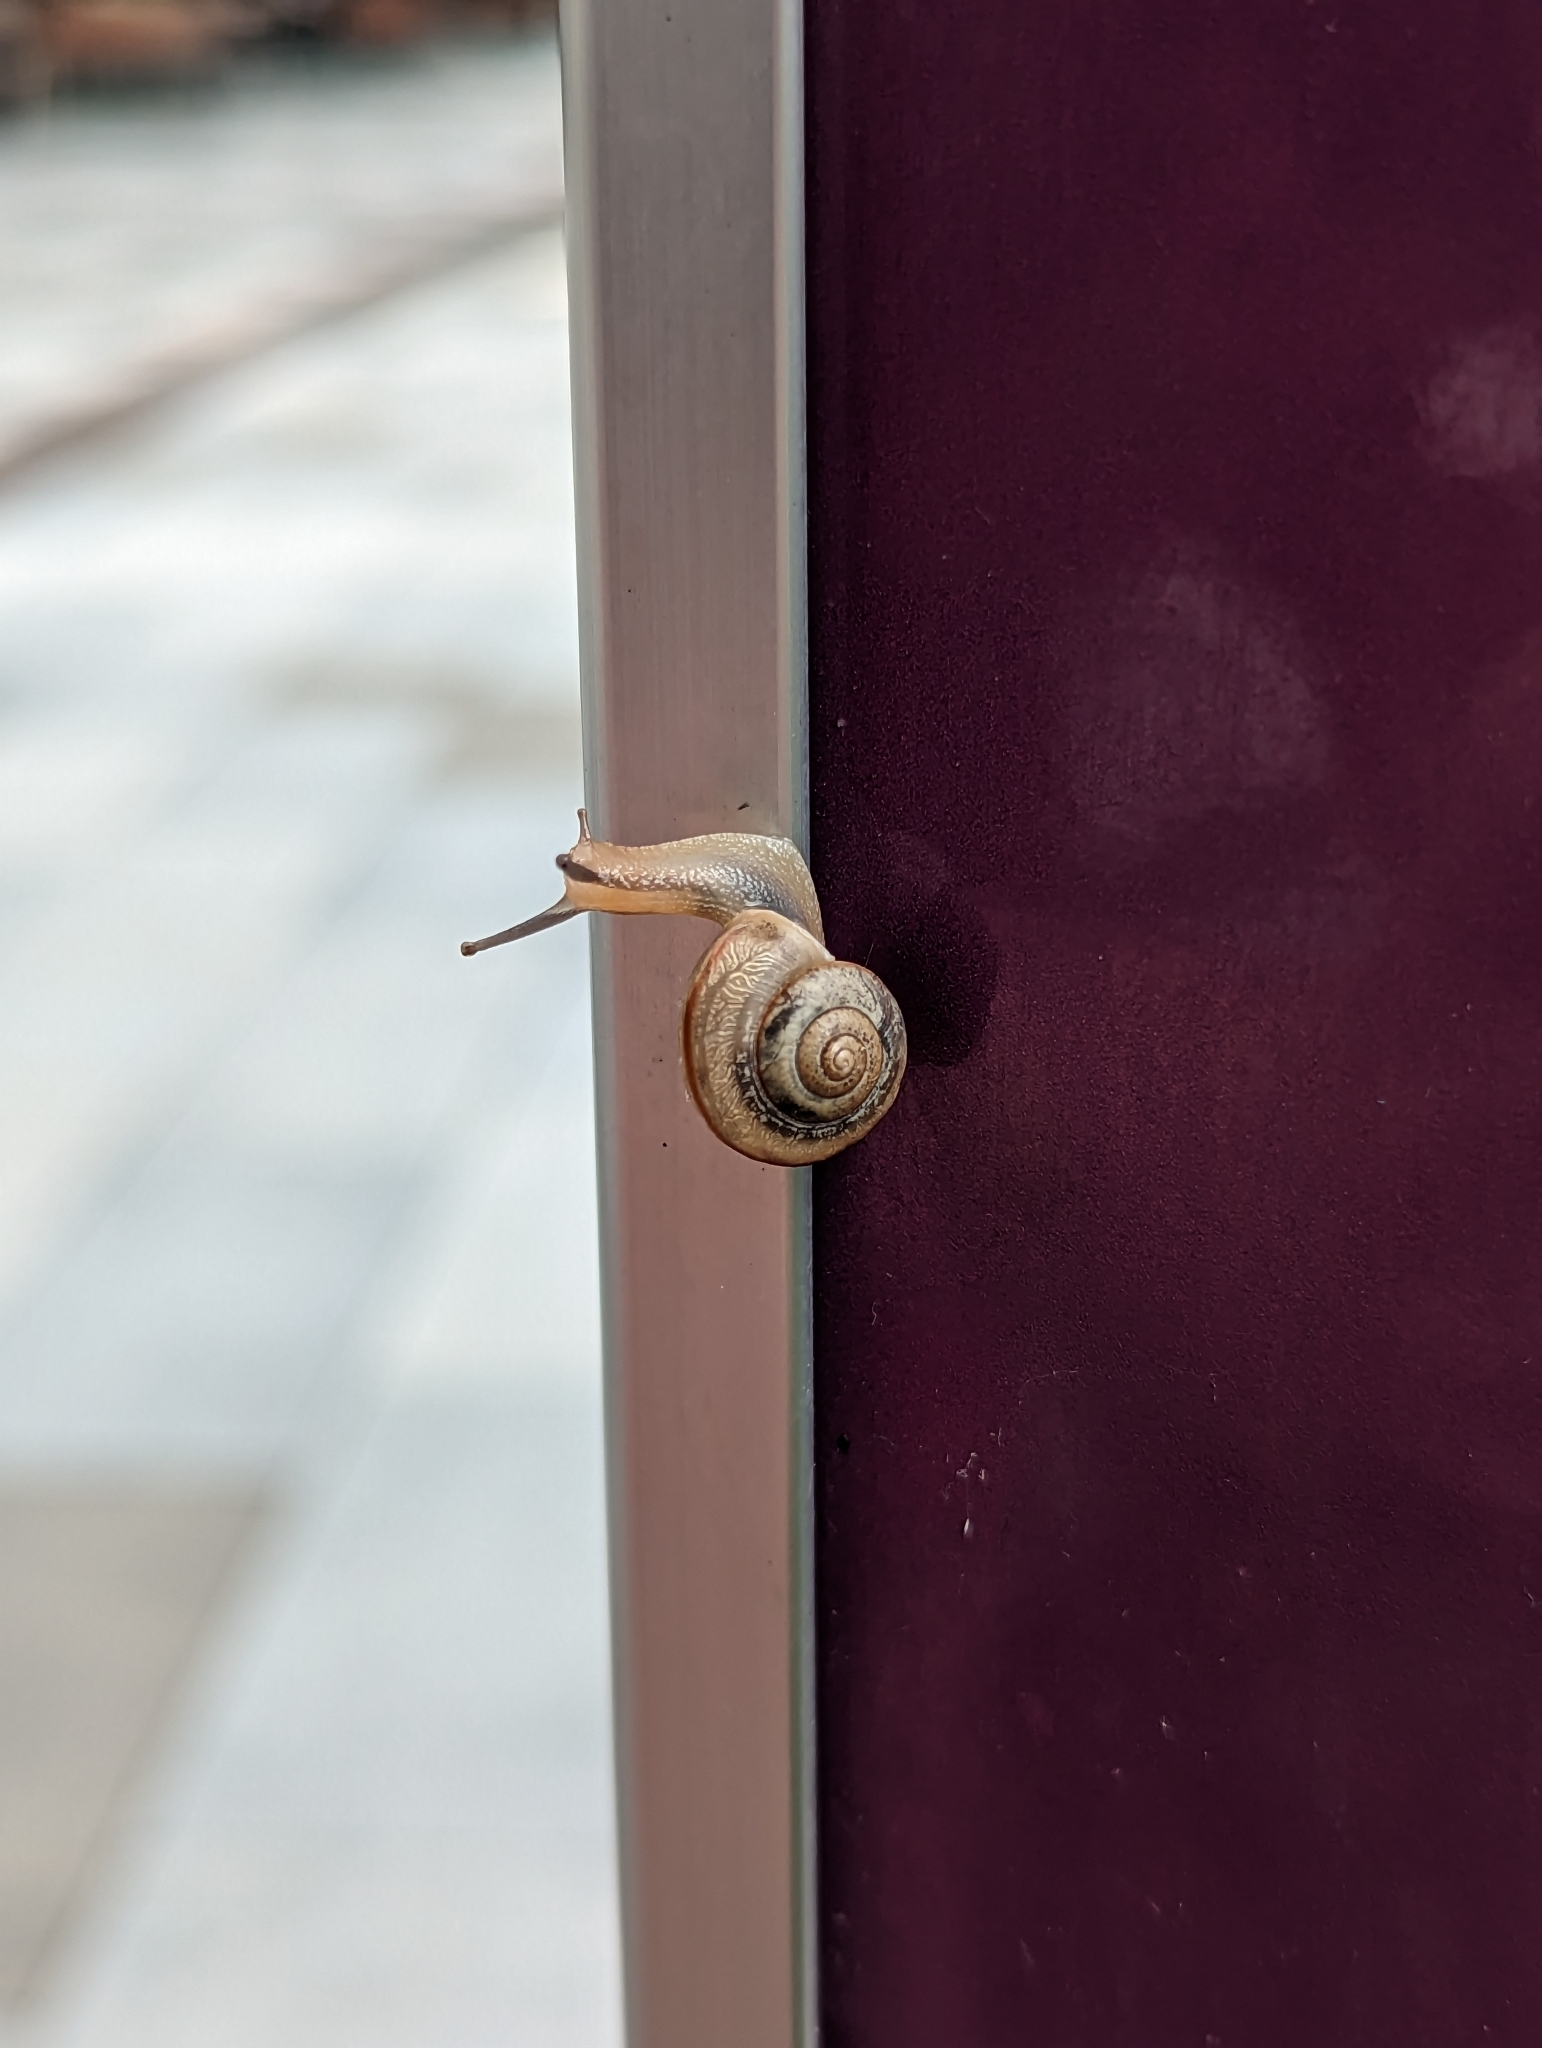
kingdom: Animalia
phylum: Mollusca
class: Gastropoda
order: Stylommatophora
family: Camaenidae
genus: Bradybaena
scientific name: Bradybaena similaris
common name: Asian trampsnail
